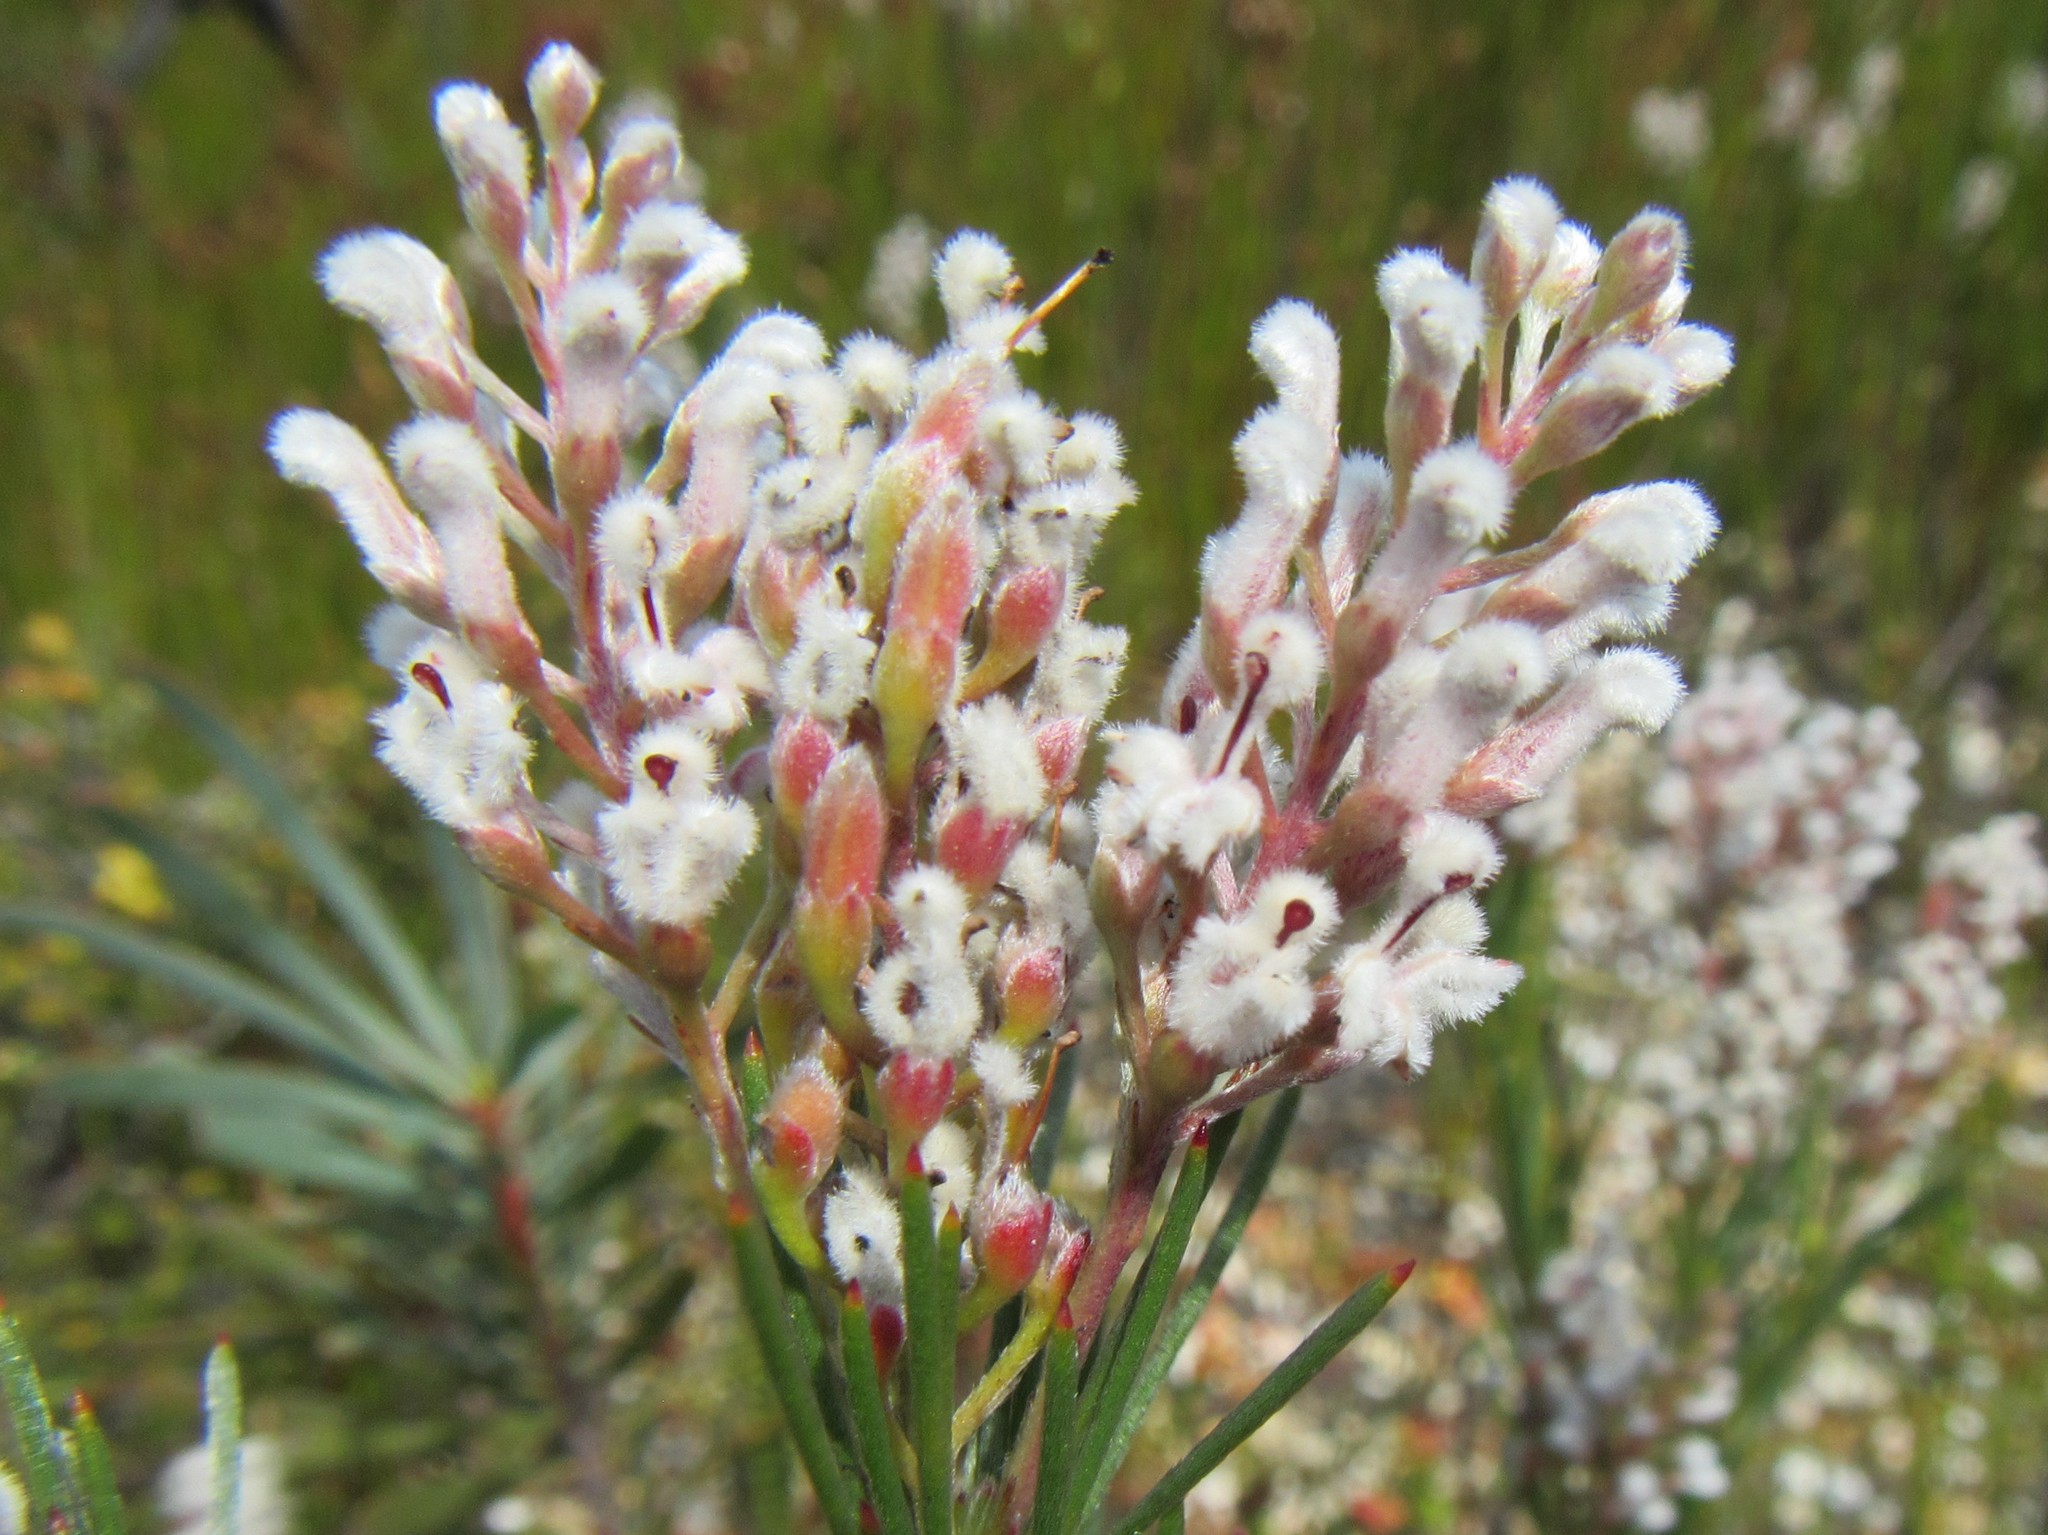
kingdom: Plantae
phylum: Tracheophyta
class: Magnoliopsida
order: Proteales
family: Proteaceae
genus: Spatalla
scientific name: Spatalla racemosa
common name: Lax-stalked spoon
